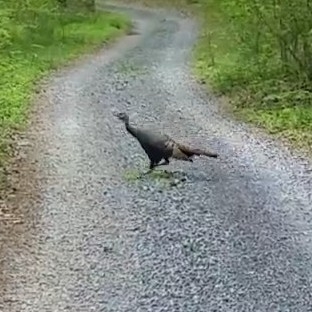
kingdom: Animalia
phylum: Chordata
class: Aves
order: Galliformes
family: Phasianidae
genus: Meleagris
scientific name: Meleagris gallopavo
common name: Wild turkey
